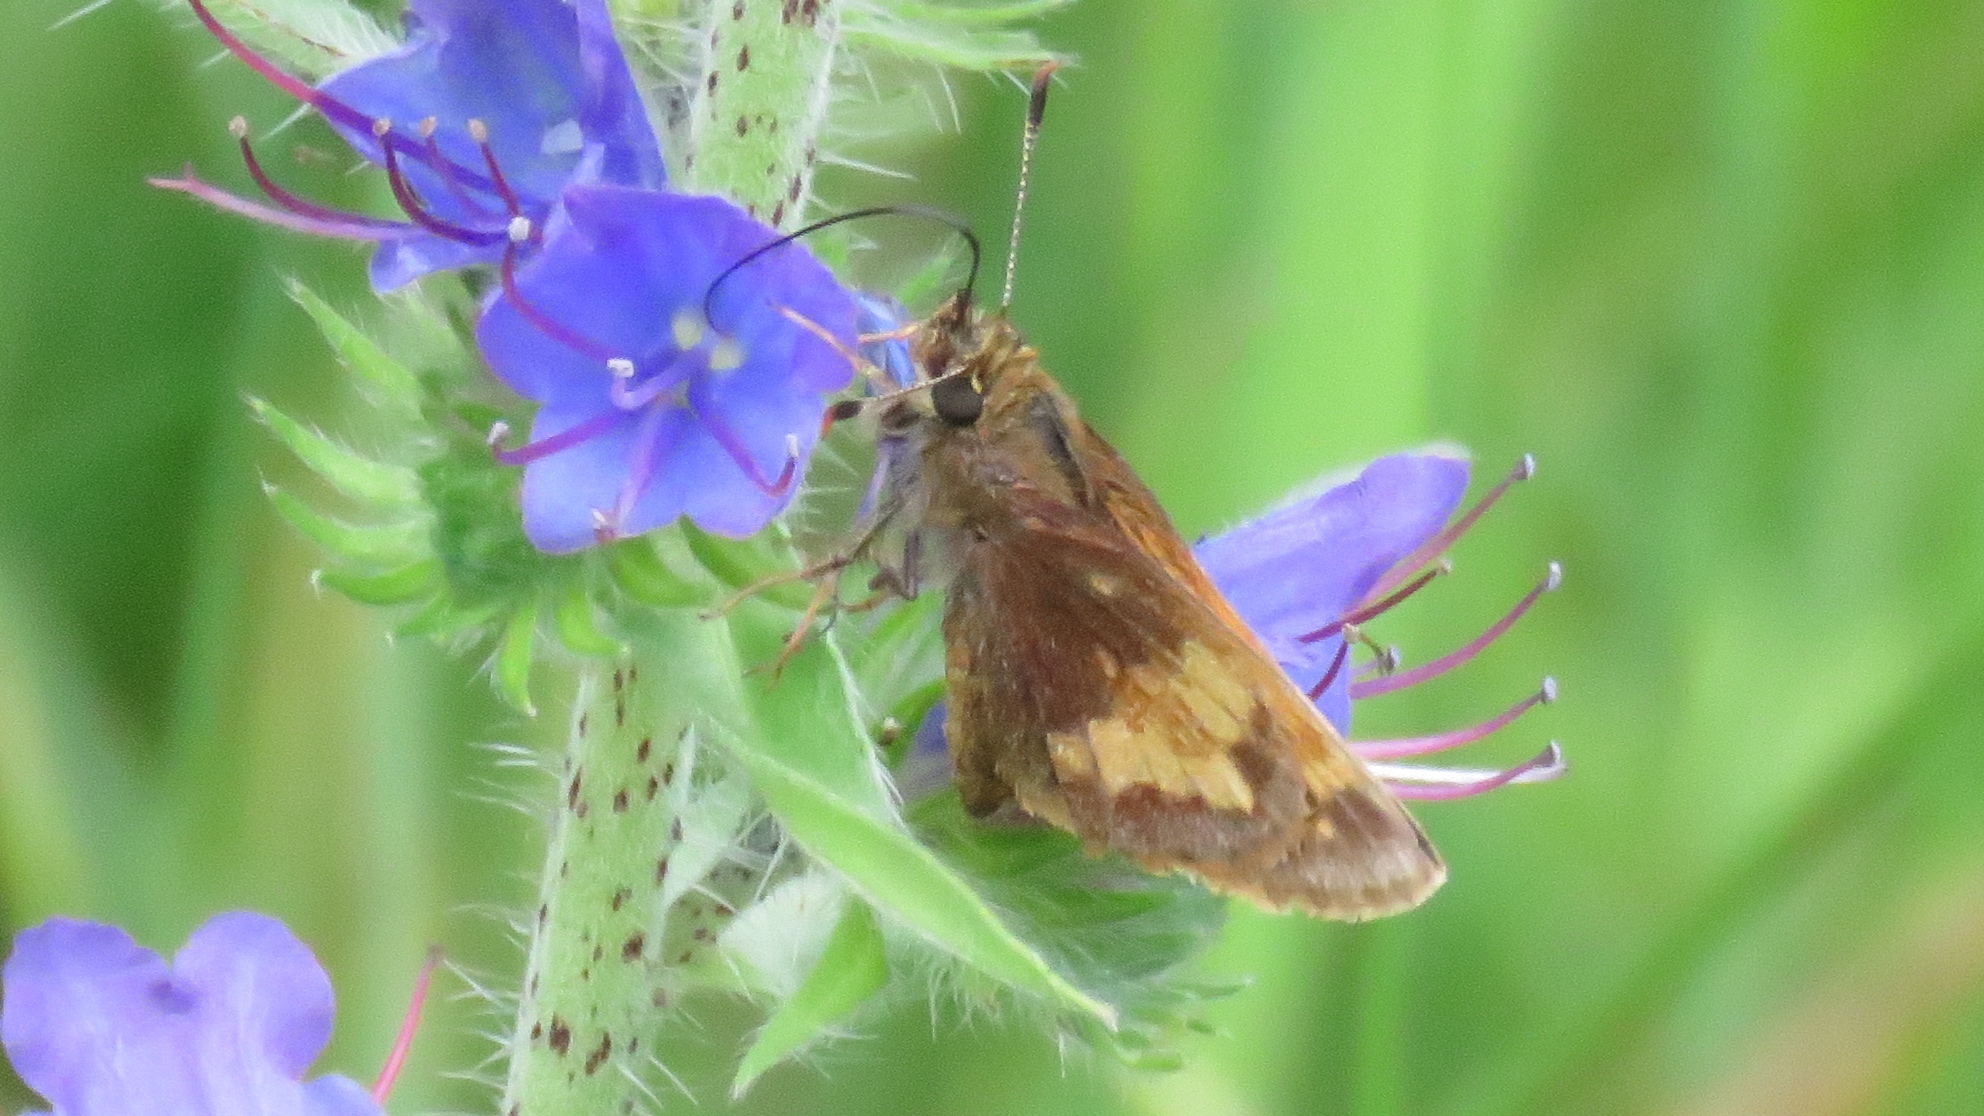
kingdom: Animalia
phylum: Arthropoda
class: Insecta
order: Lepidoptera
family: Hesperiidae
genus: Lon
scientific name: Lon hobomok
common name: Hobomok skipper
